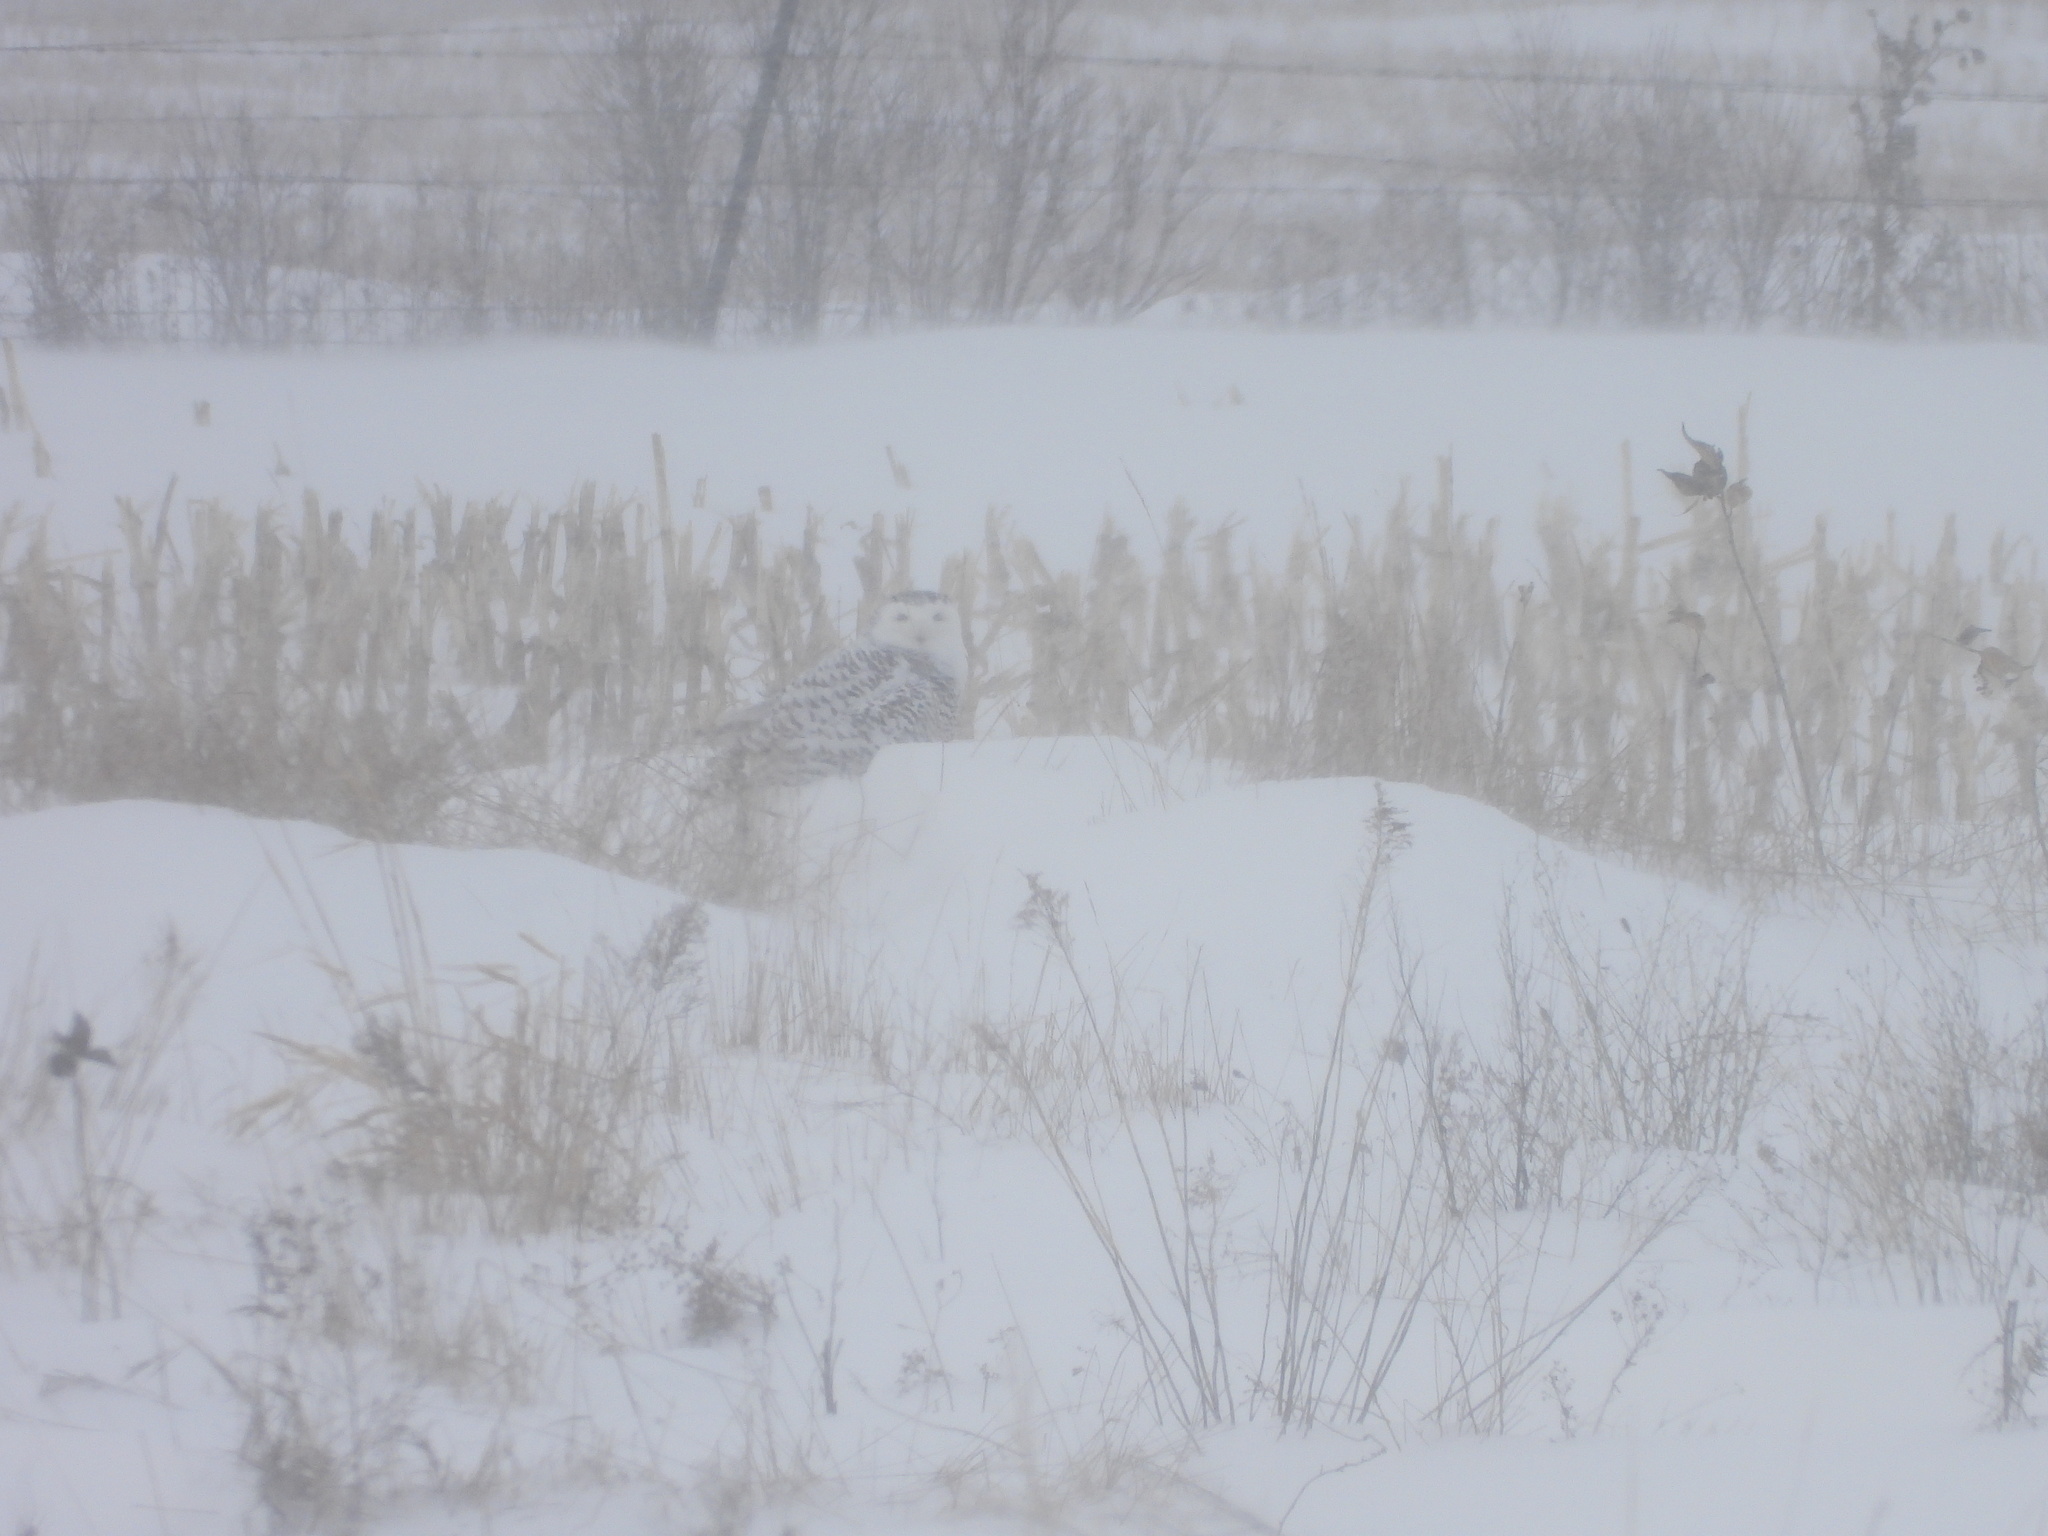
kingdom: Animalia
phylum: Chordata
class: Aves
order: Strigiformes
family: Strigidae
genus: Bubo
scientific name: Bubo scandiacus
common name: Snowy owl
